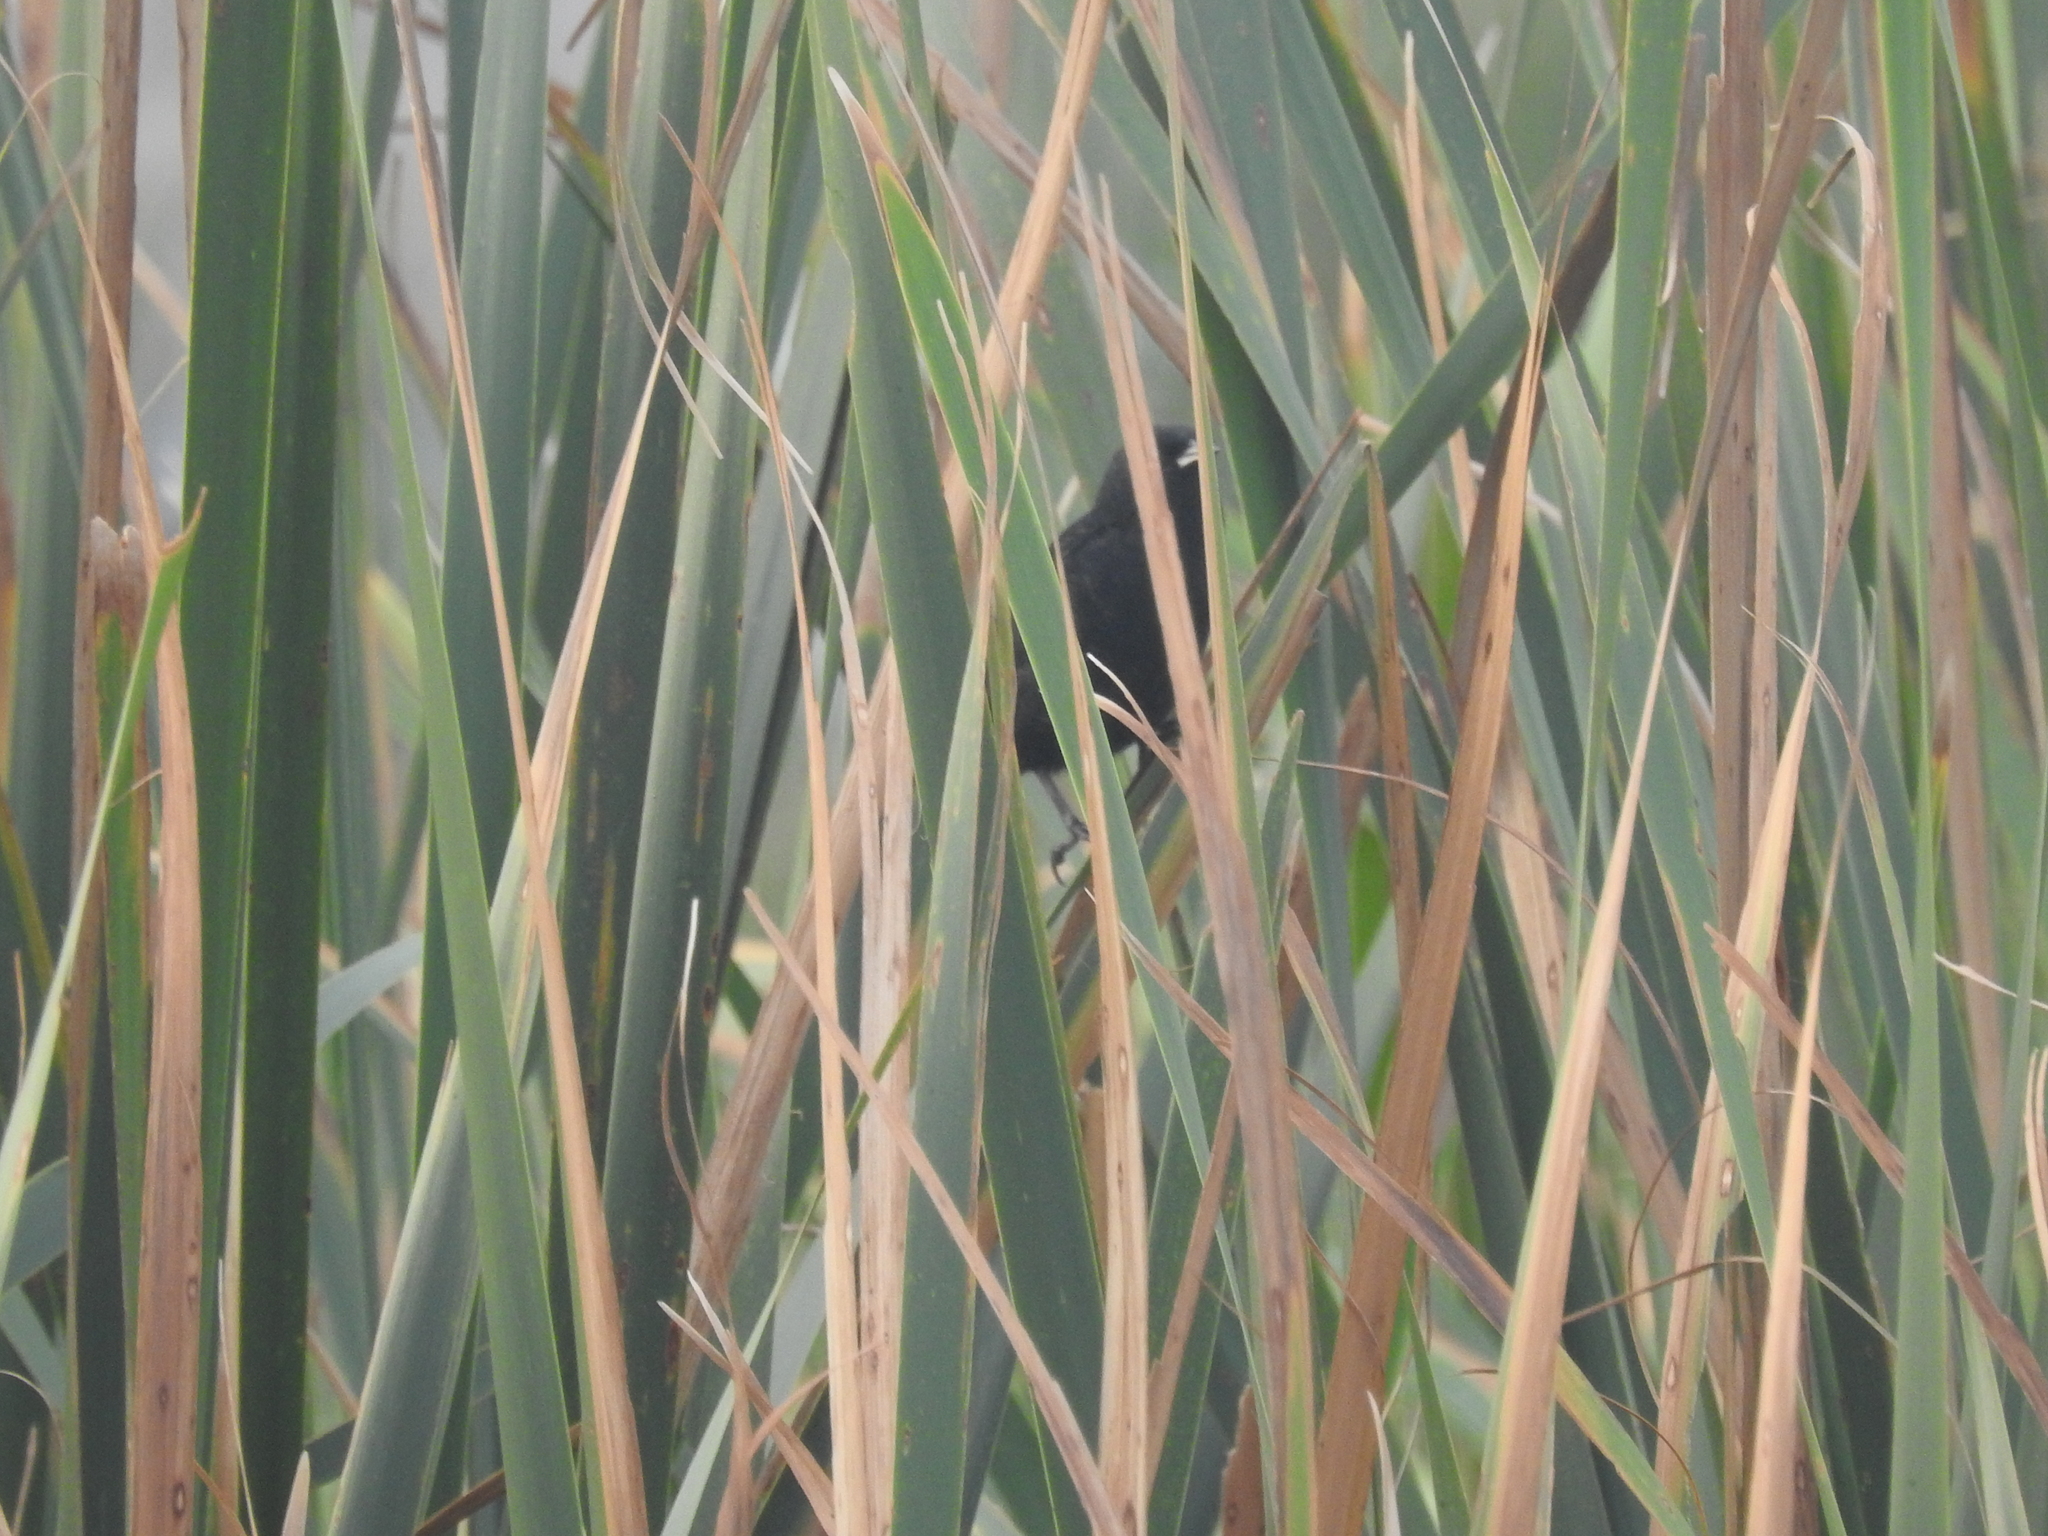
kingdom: Animalia
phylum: Chordata
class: Aves
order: Passeriformes
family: Icteridae
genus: Agelasticus
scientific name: Agelasticus thilius
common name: Yellow-winged blackbird
